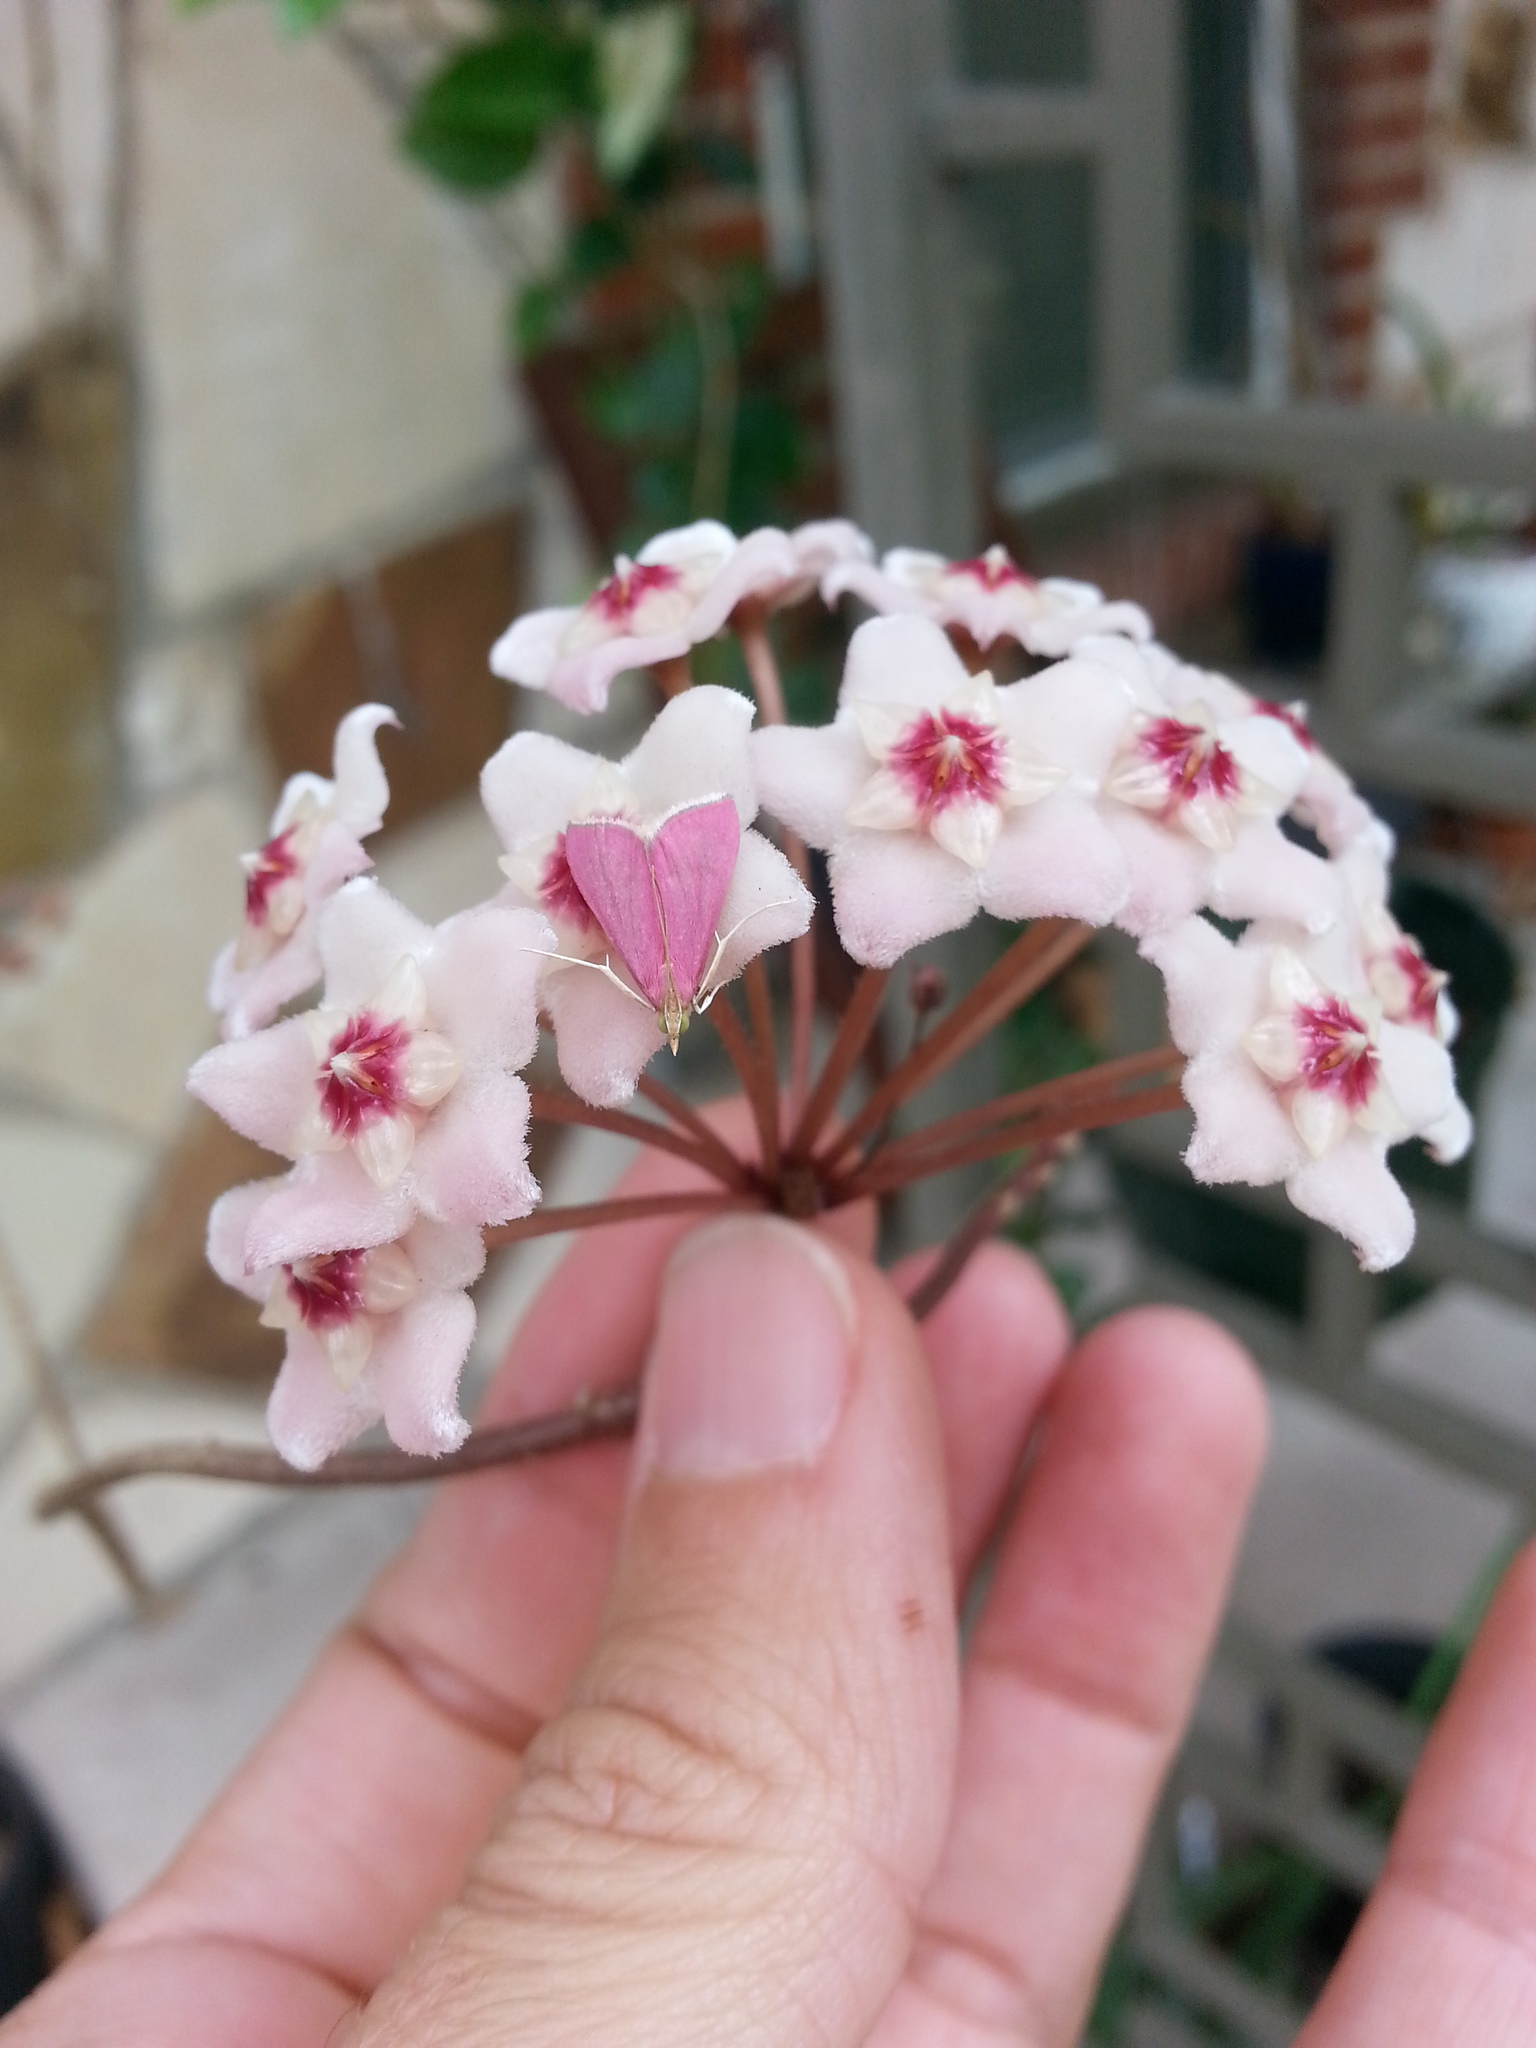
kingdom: Animalia
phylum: Arthropoda
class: Insecta
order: Lepidoptera
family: Crambidae
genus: Pyrausta
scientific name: Pyrausta inornatalis
